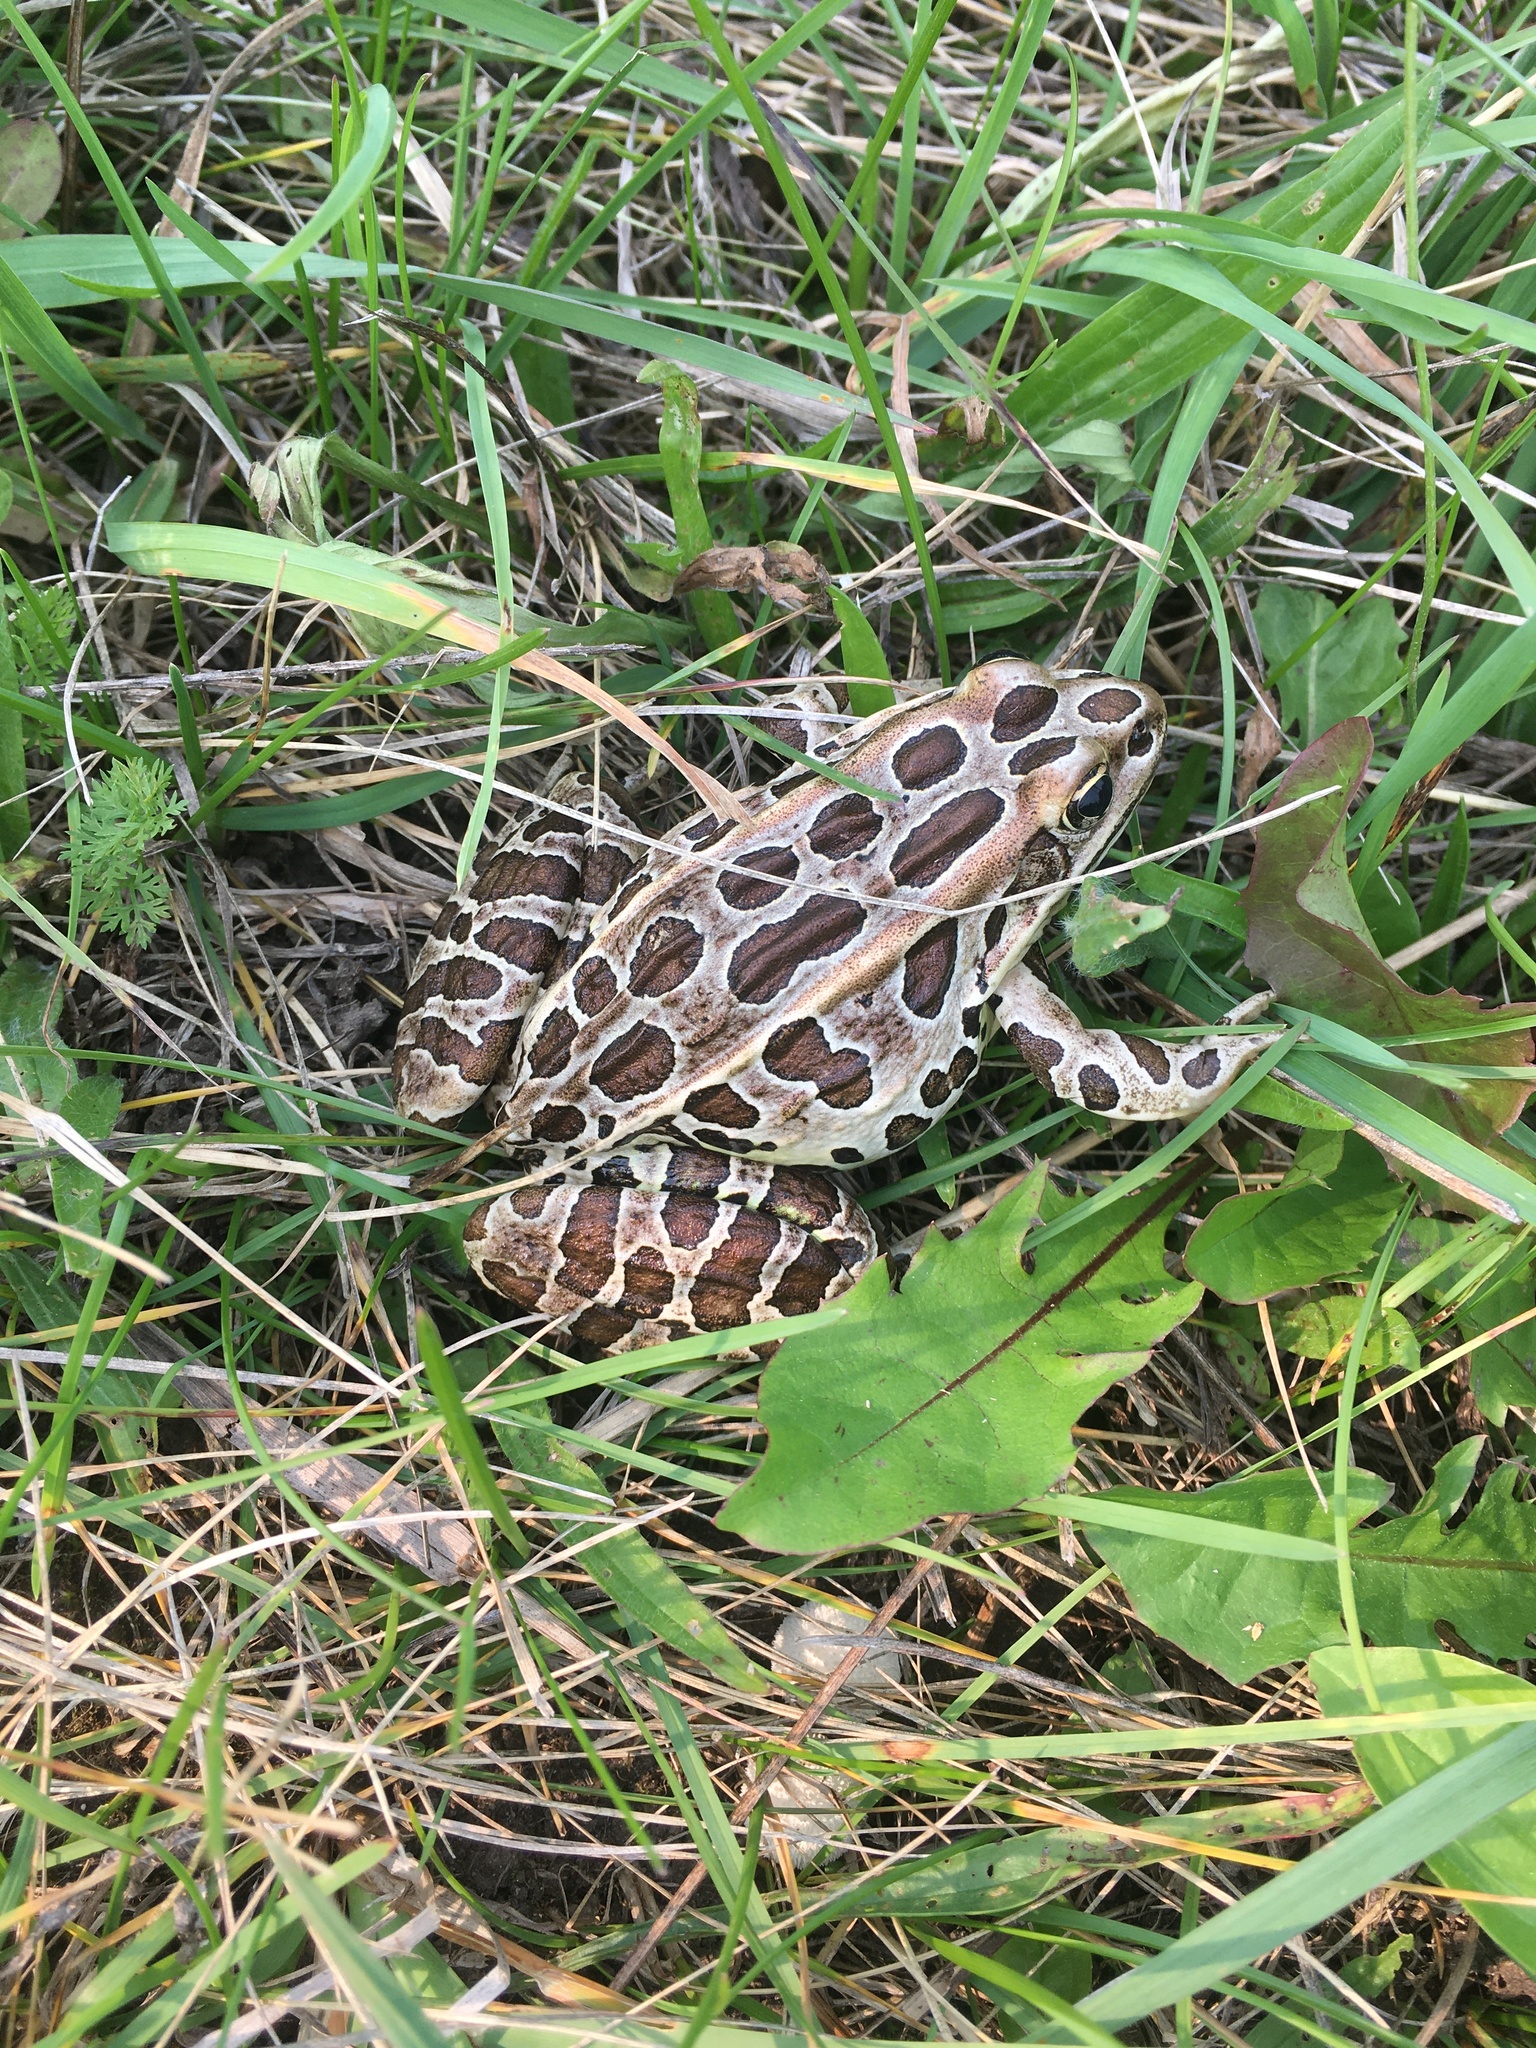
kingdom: Animalia
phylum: Chordata
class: Amphibia
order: Anura
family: Ranidae
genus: Lithobates
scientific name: Lithobates pipiens
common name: Northern leopard frog
